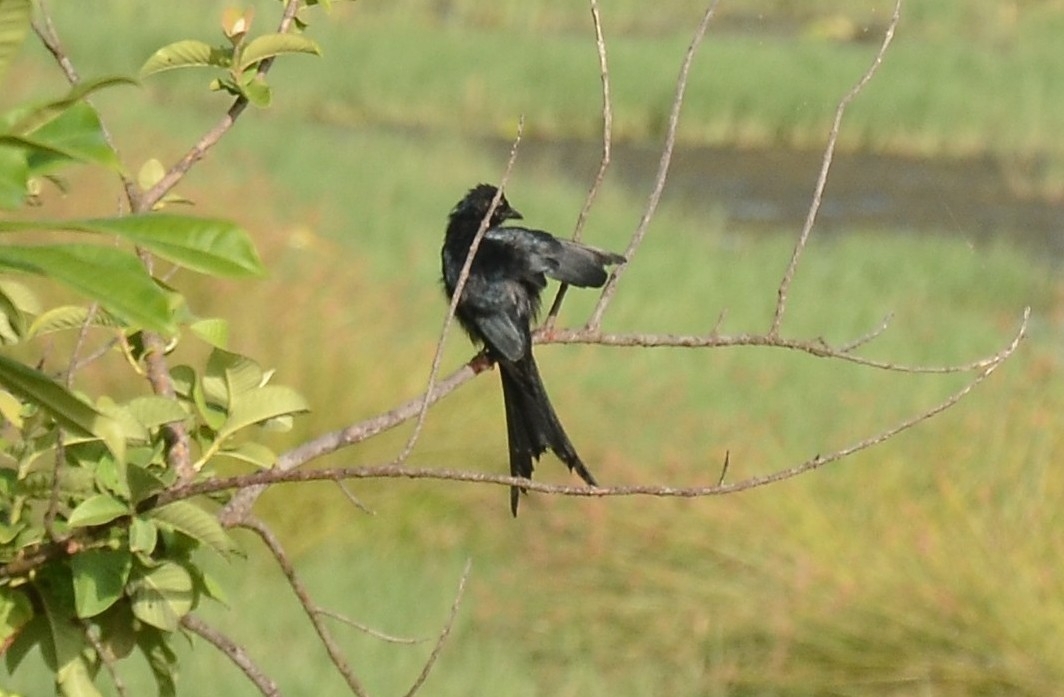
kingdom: Animalia
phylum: Chordata
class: Aves
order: Passeriformes
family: Dicruridae
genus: Dicrurus
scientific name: Dicrurus macrocercus
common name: Black drongo
